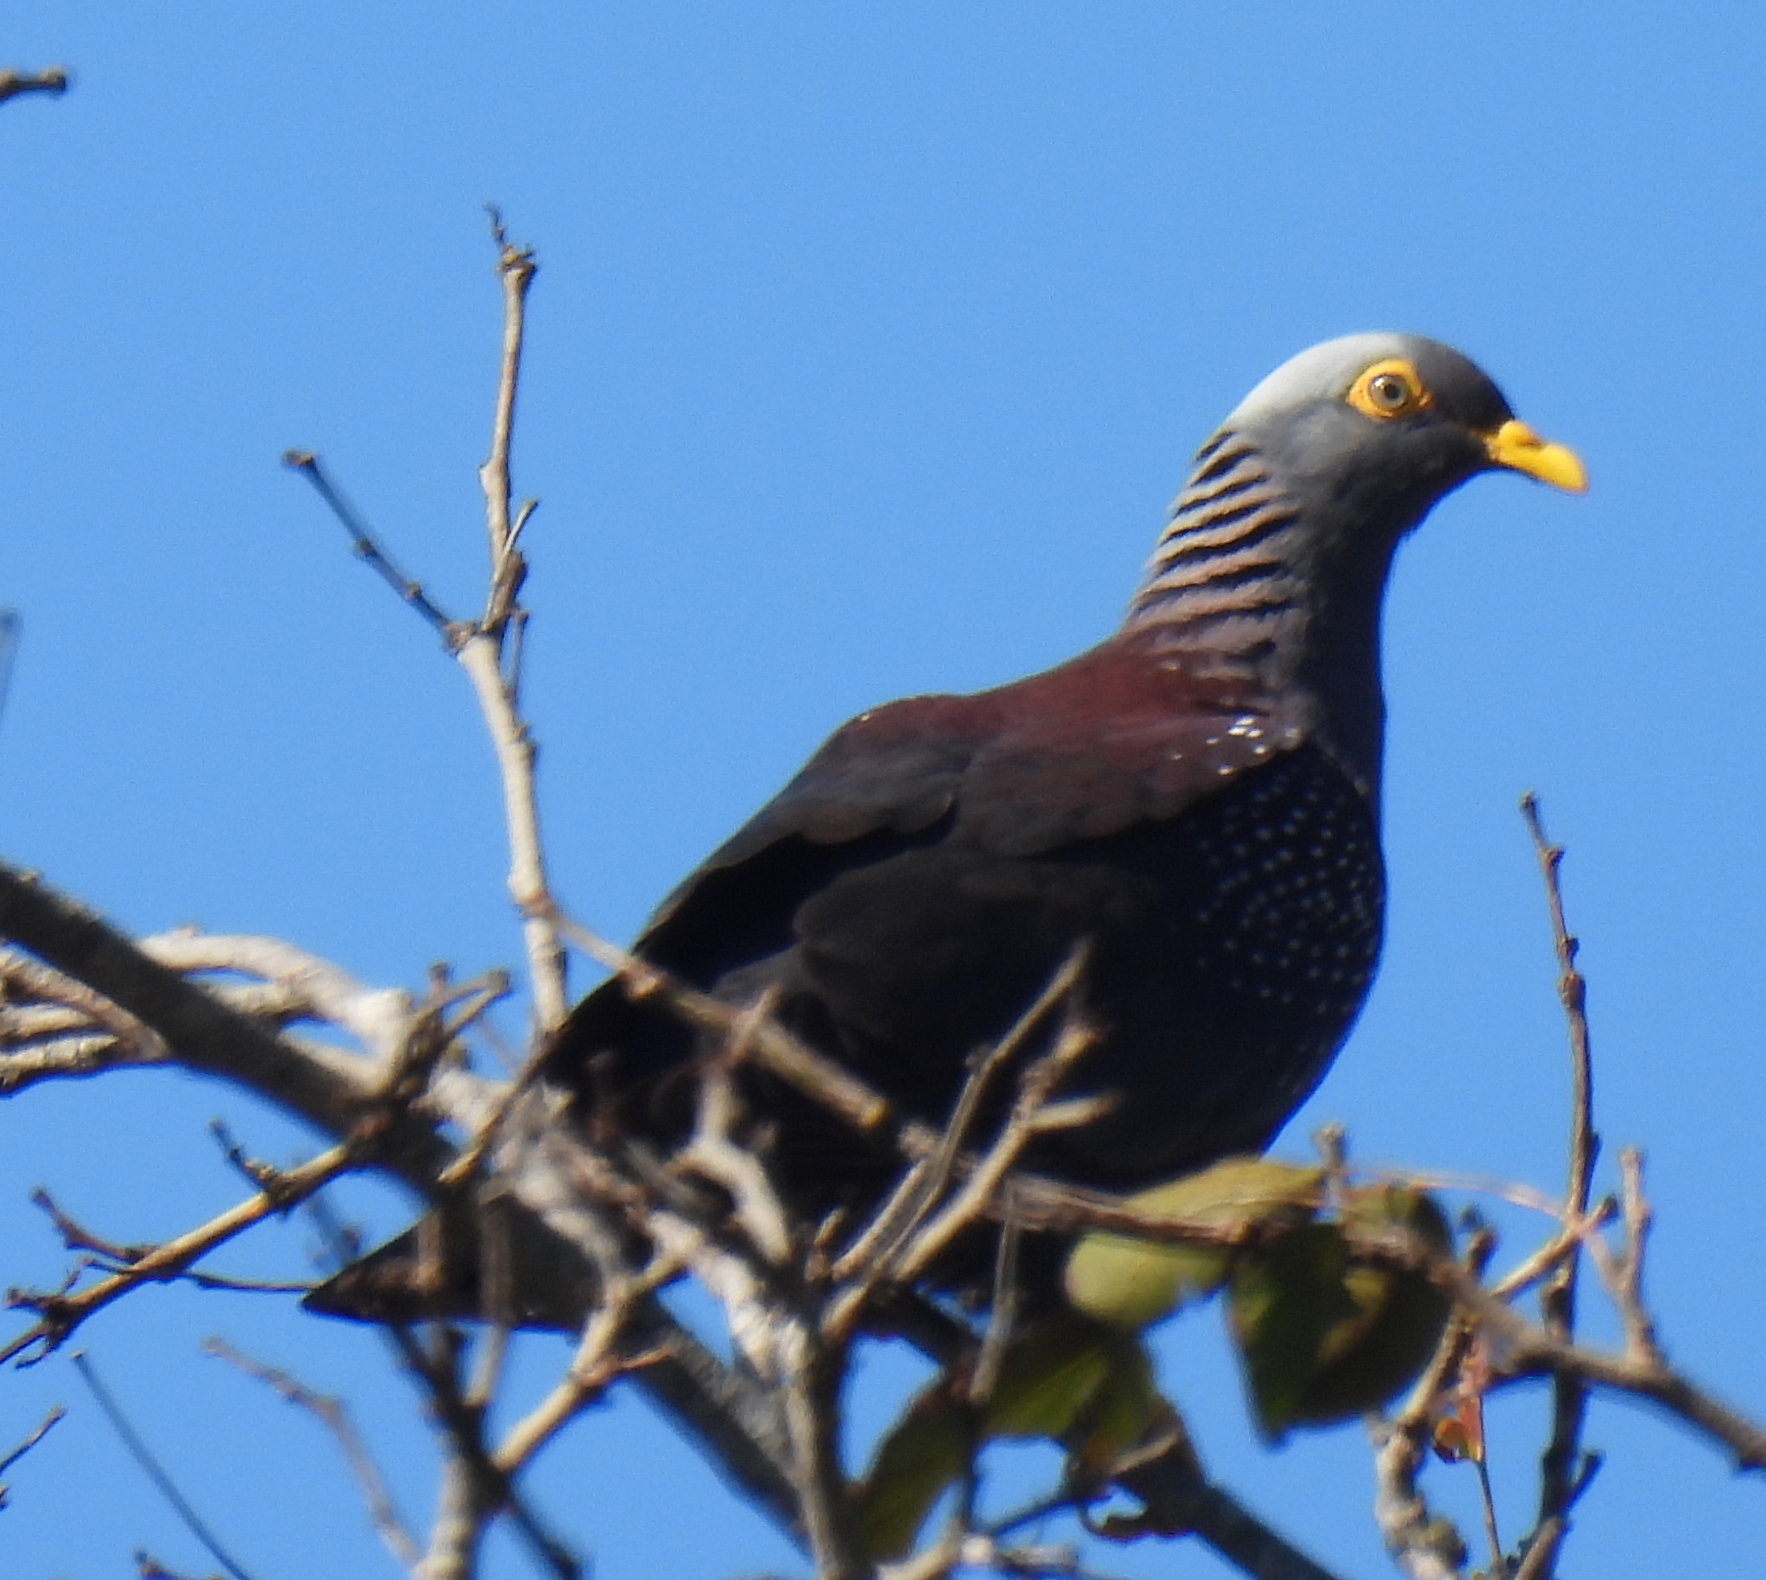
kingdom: Animalia
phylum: Chordata
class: Aves
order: Columbiformes
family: Columbidae
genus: Columba
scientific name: Columba arquatrix
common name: African olive pigeon
